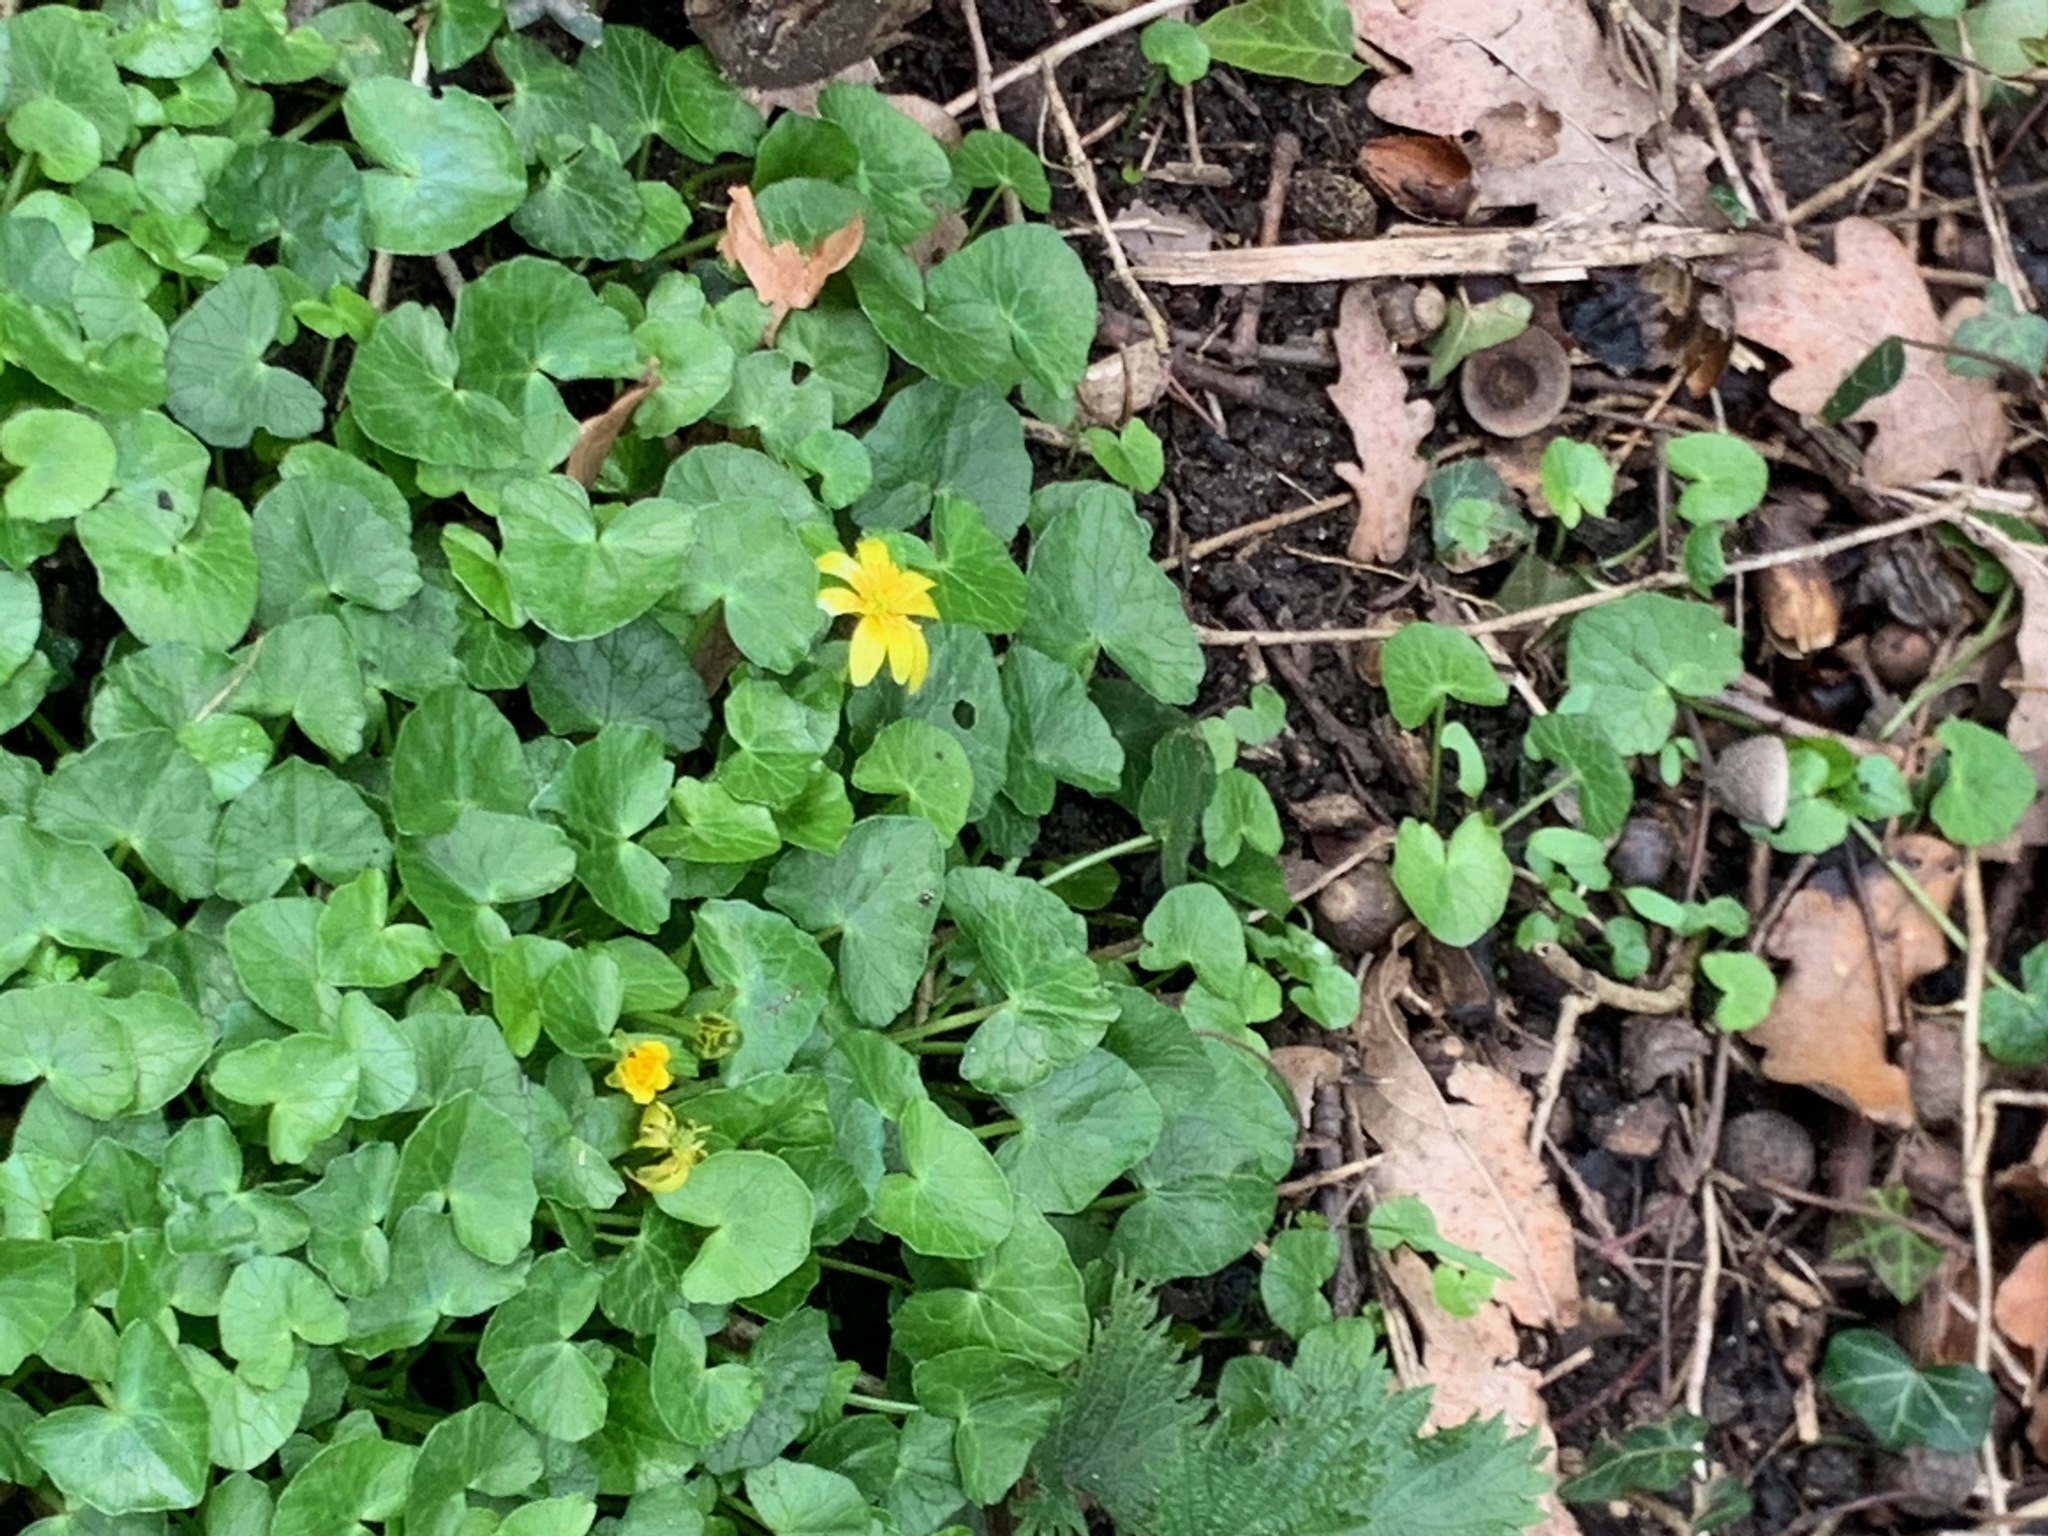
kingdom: Plantae
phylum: Tracheophyta
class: Magnoliopsida
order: Ranunculales
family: Ranunculaceae
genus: Ficaria
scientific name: Ficaria verna
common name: Lesser celandine
